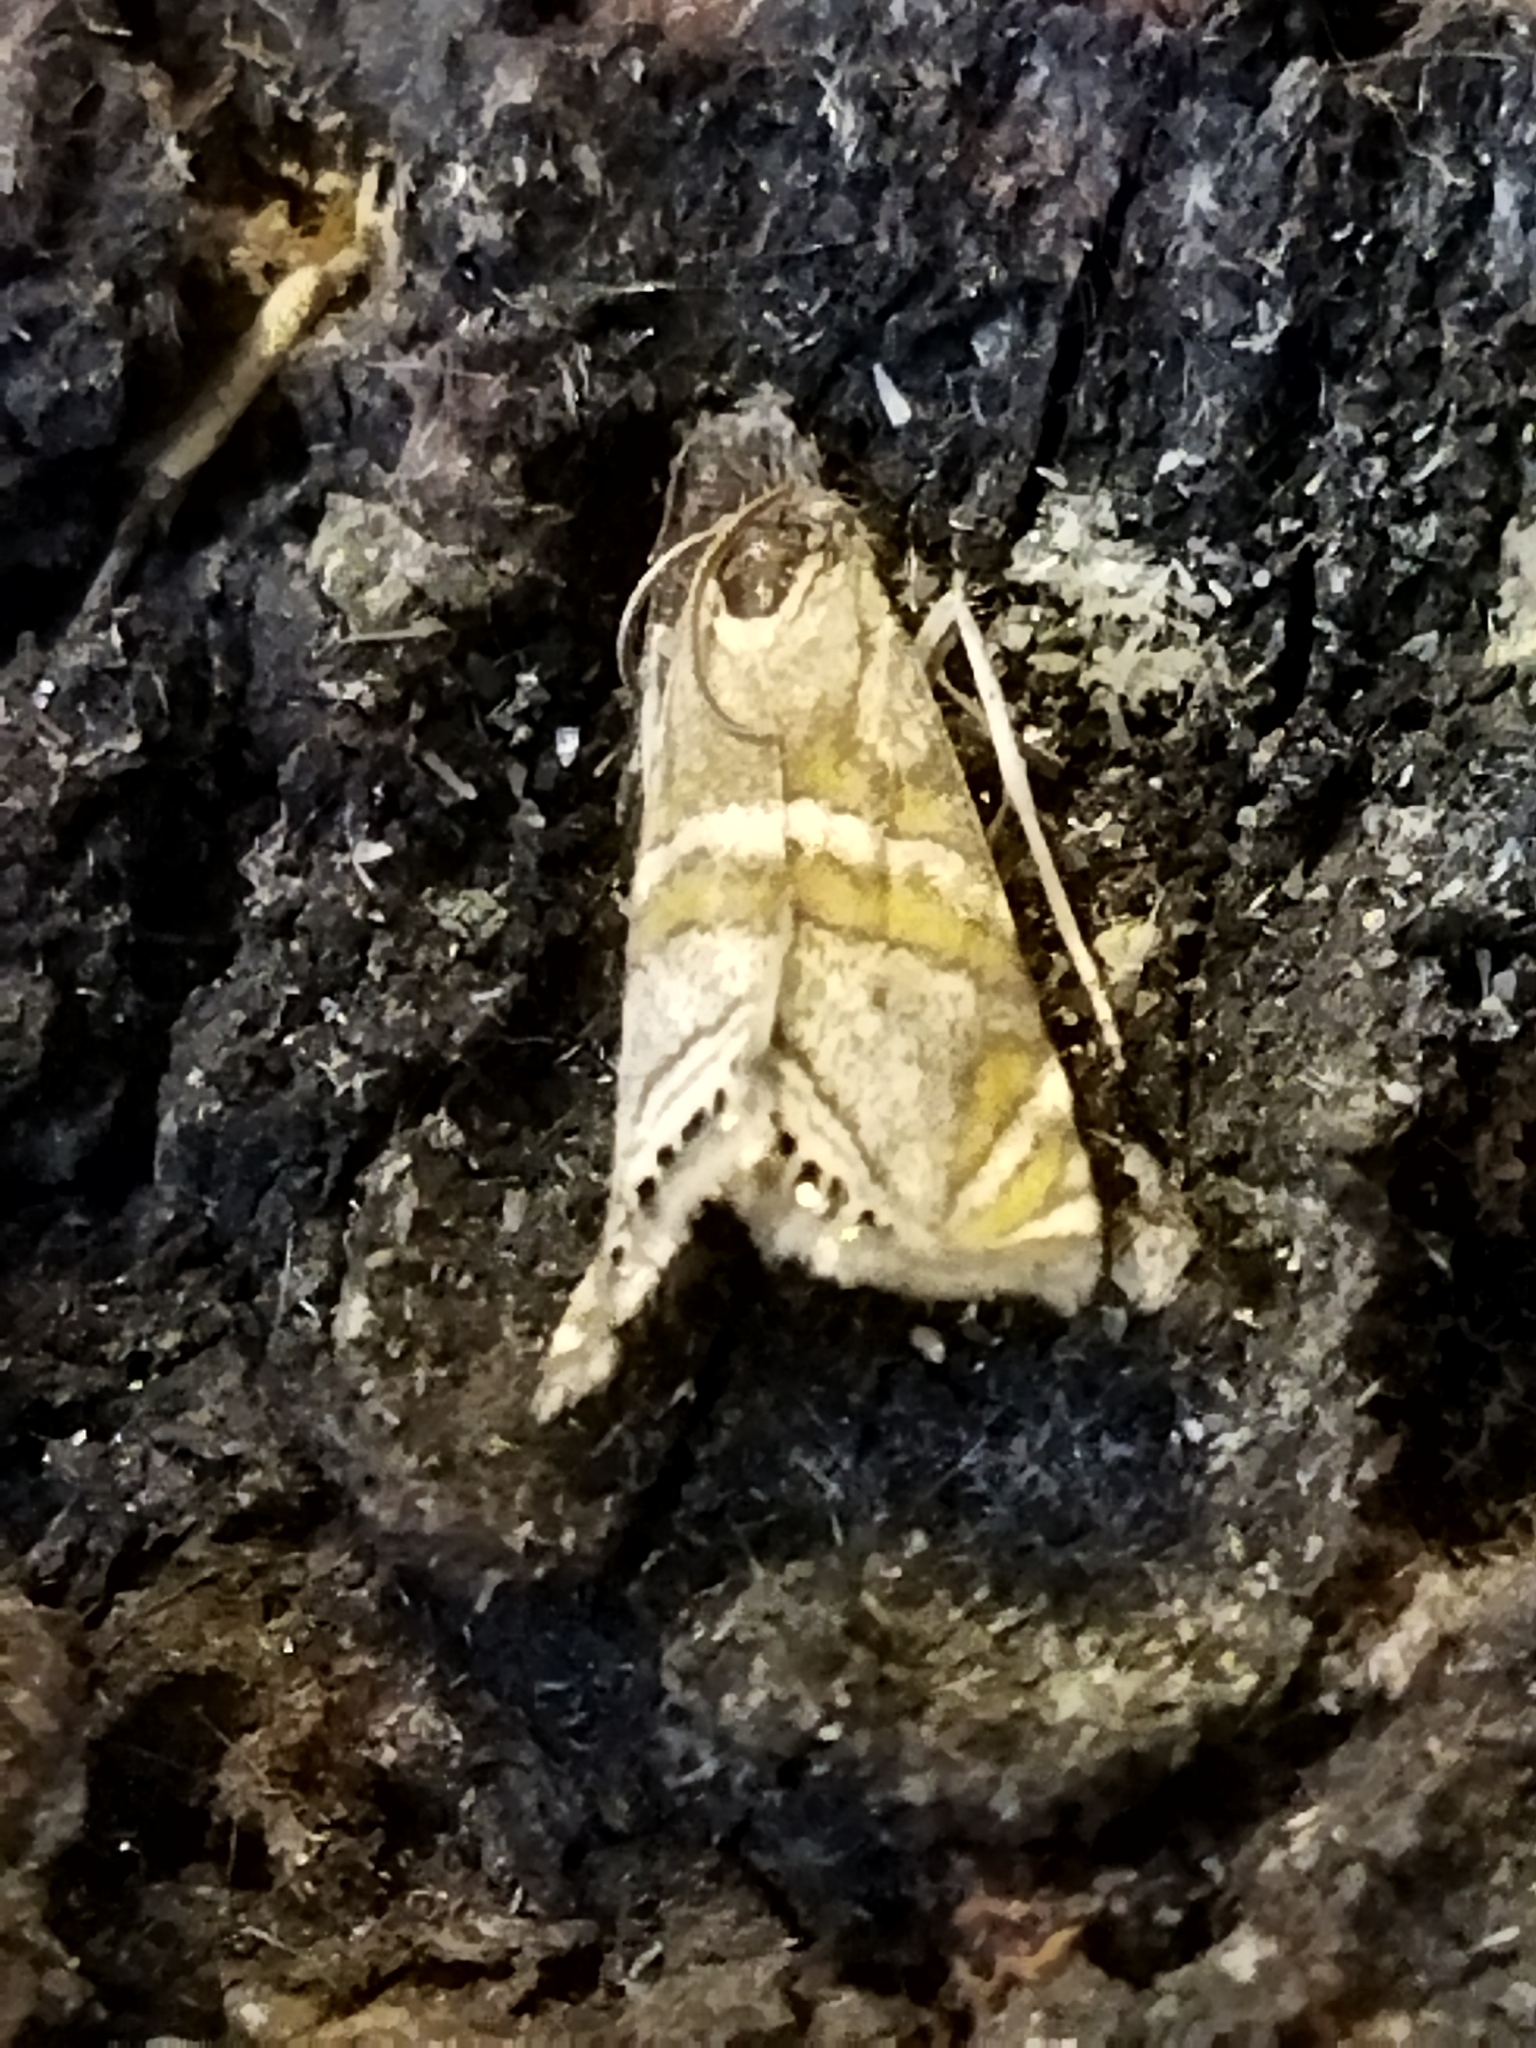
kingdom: Animalia
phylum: Arthropoda
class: Insecta
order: Lepidoptera
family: Crambidae
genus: Euchromius
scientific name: Euchromius bella
